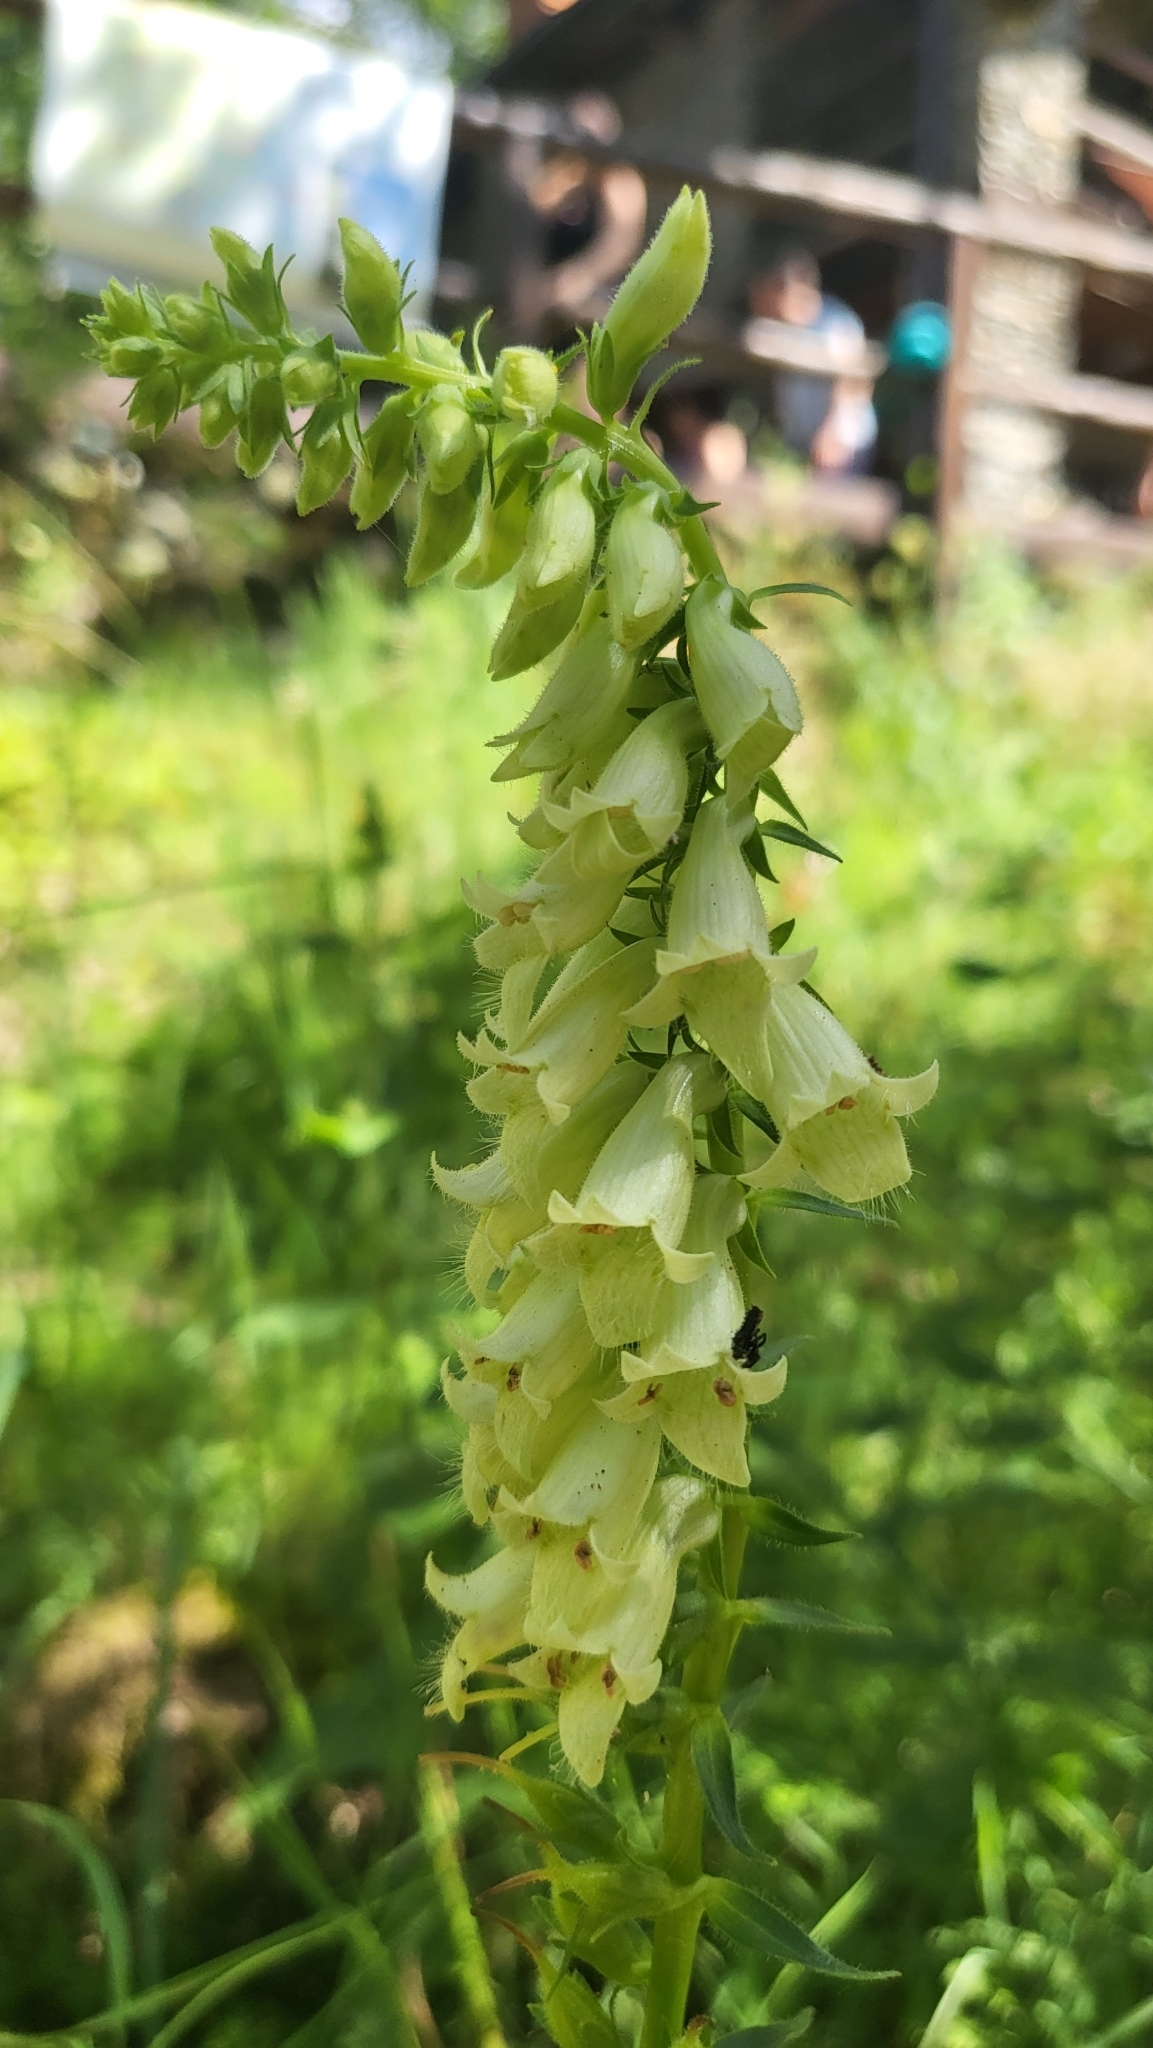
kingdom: Plantae
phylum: Tracheophyta
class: Magnoliopsida
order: Lamiales
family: Plantaginaceae
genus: Digitalis
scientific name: Digitalis lutea
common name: Straw foxglove
